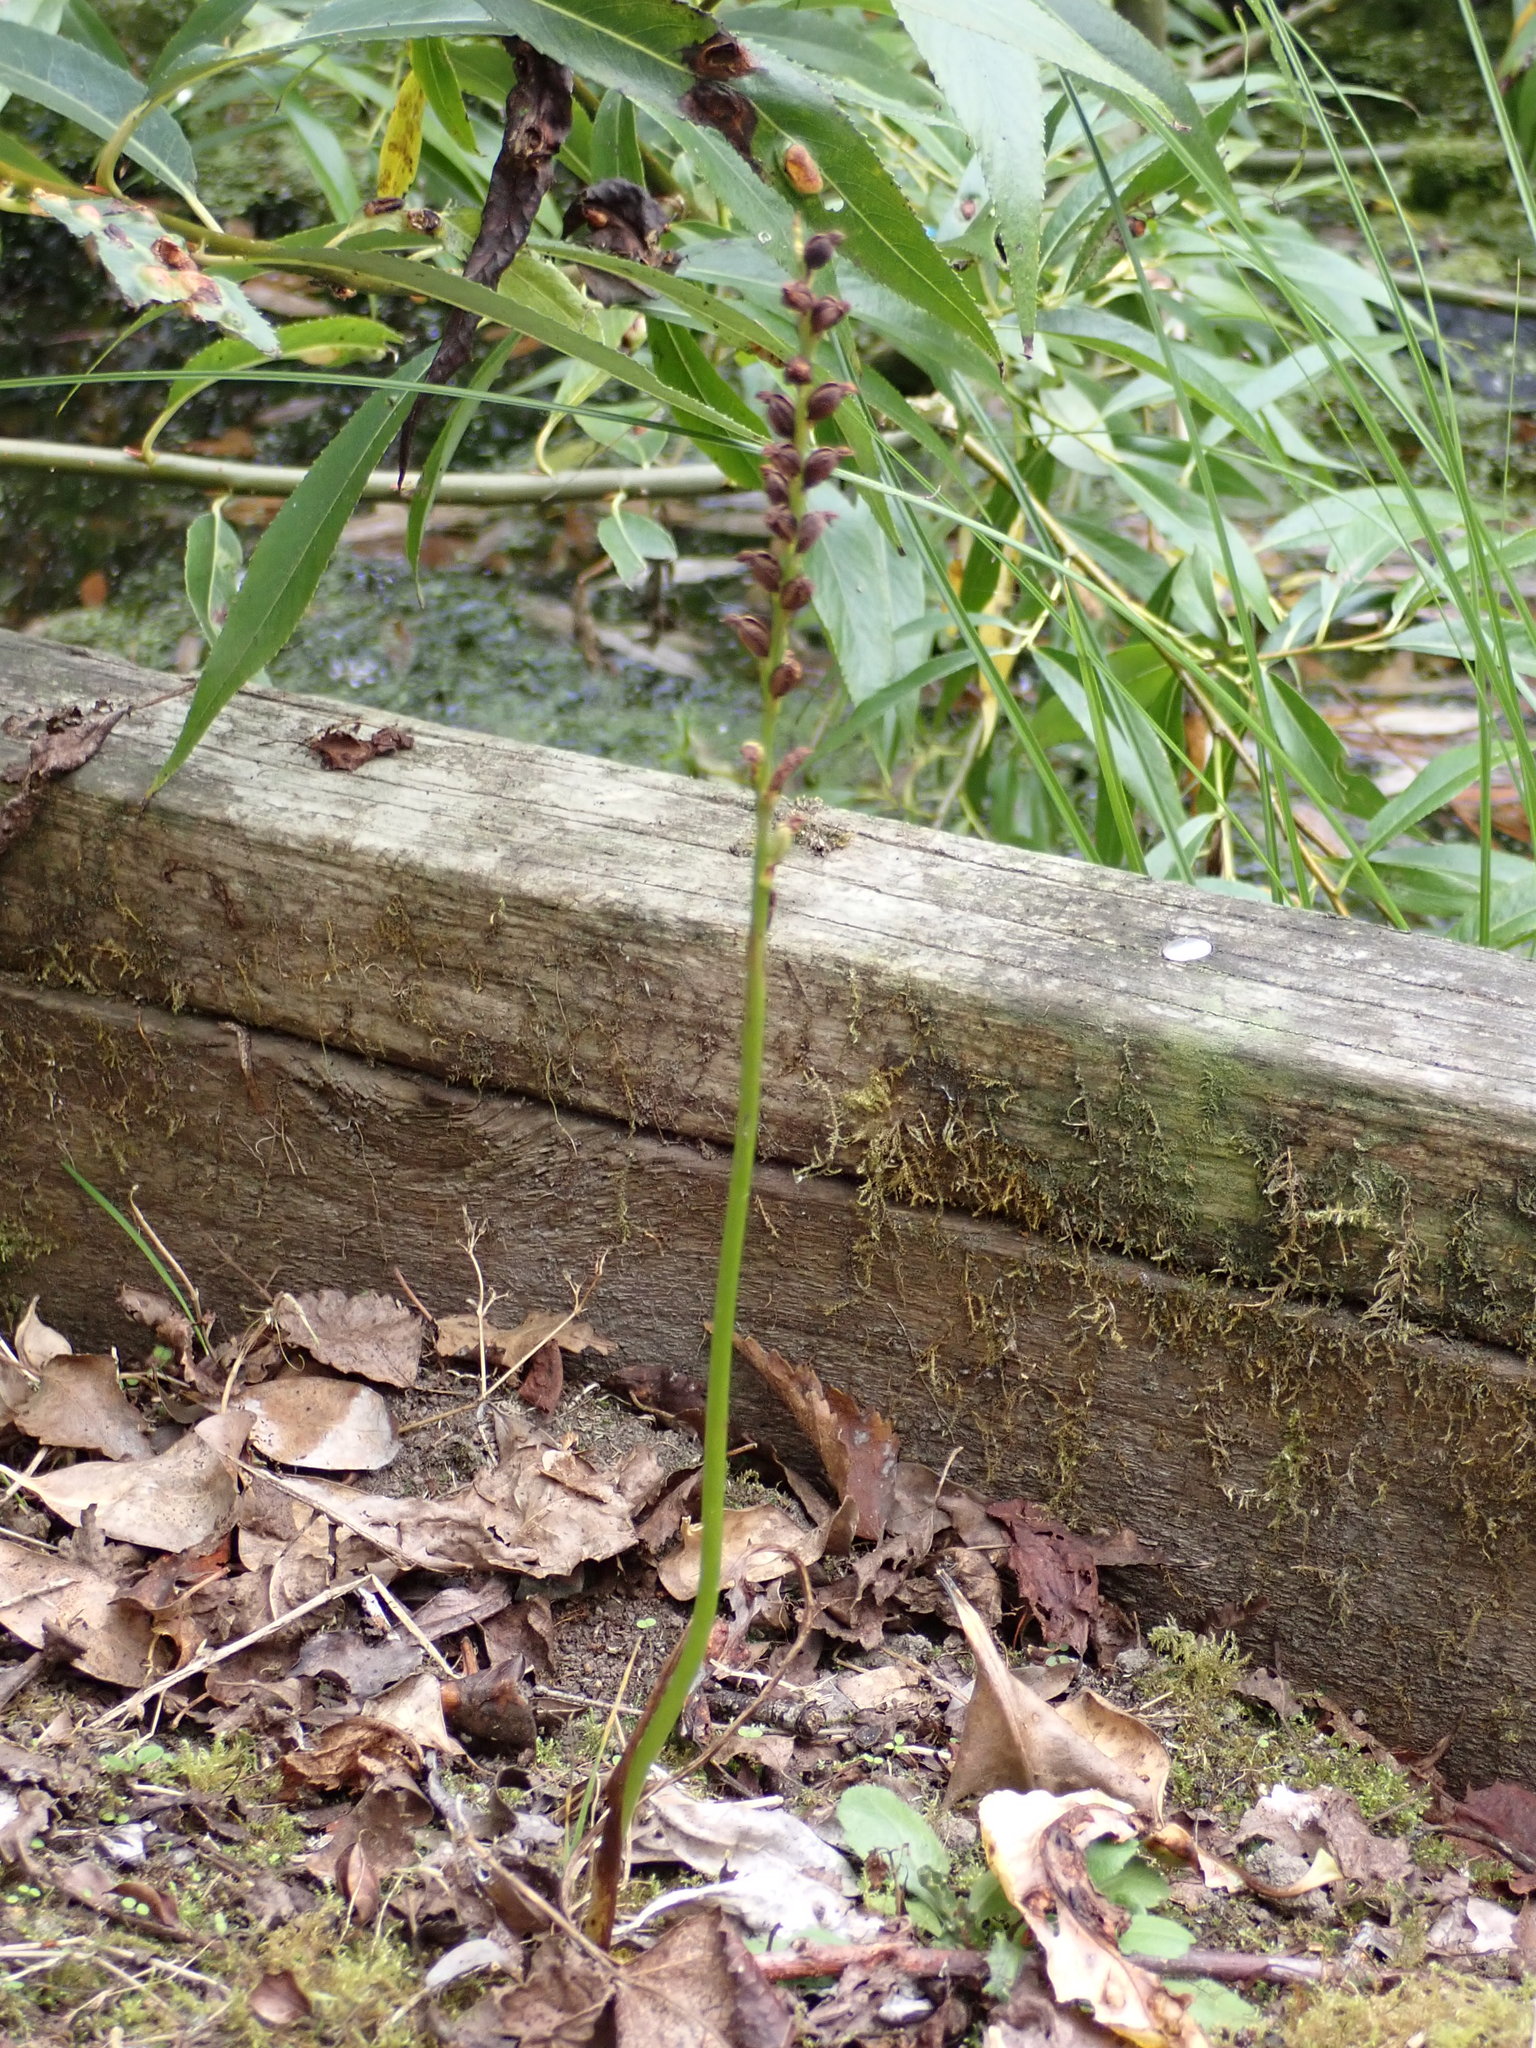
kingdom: Plantae
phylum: Tracheophyta
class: Liliopsida
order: Asparagales
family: Orchidaceae
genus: Microtis
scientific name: Microtis unifolia
